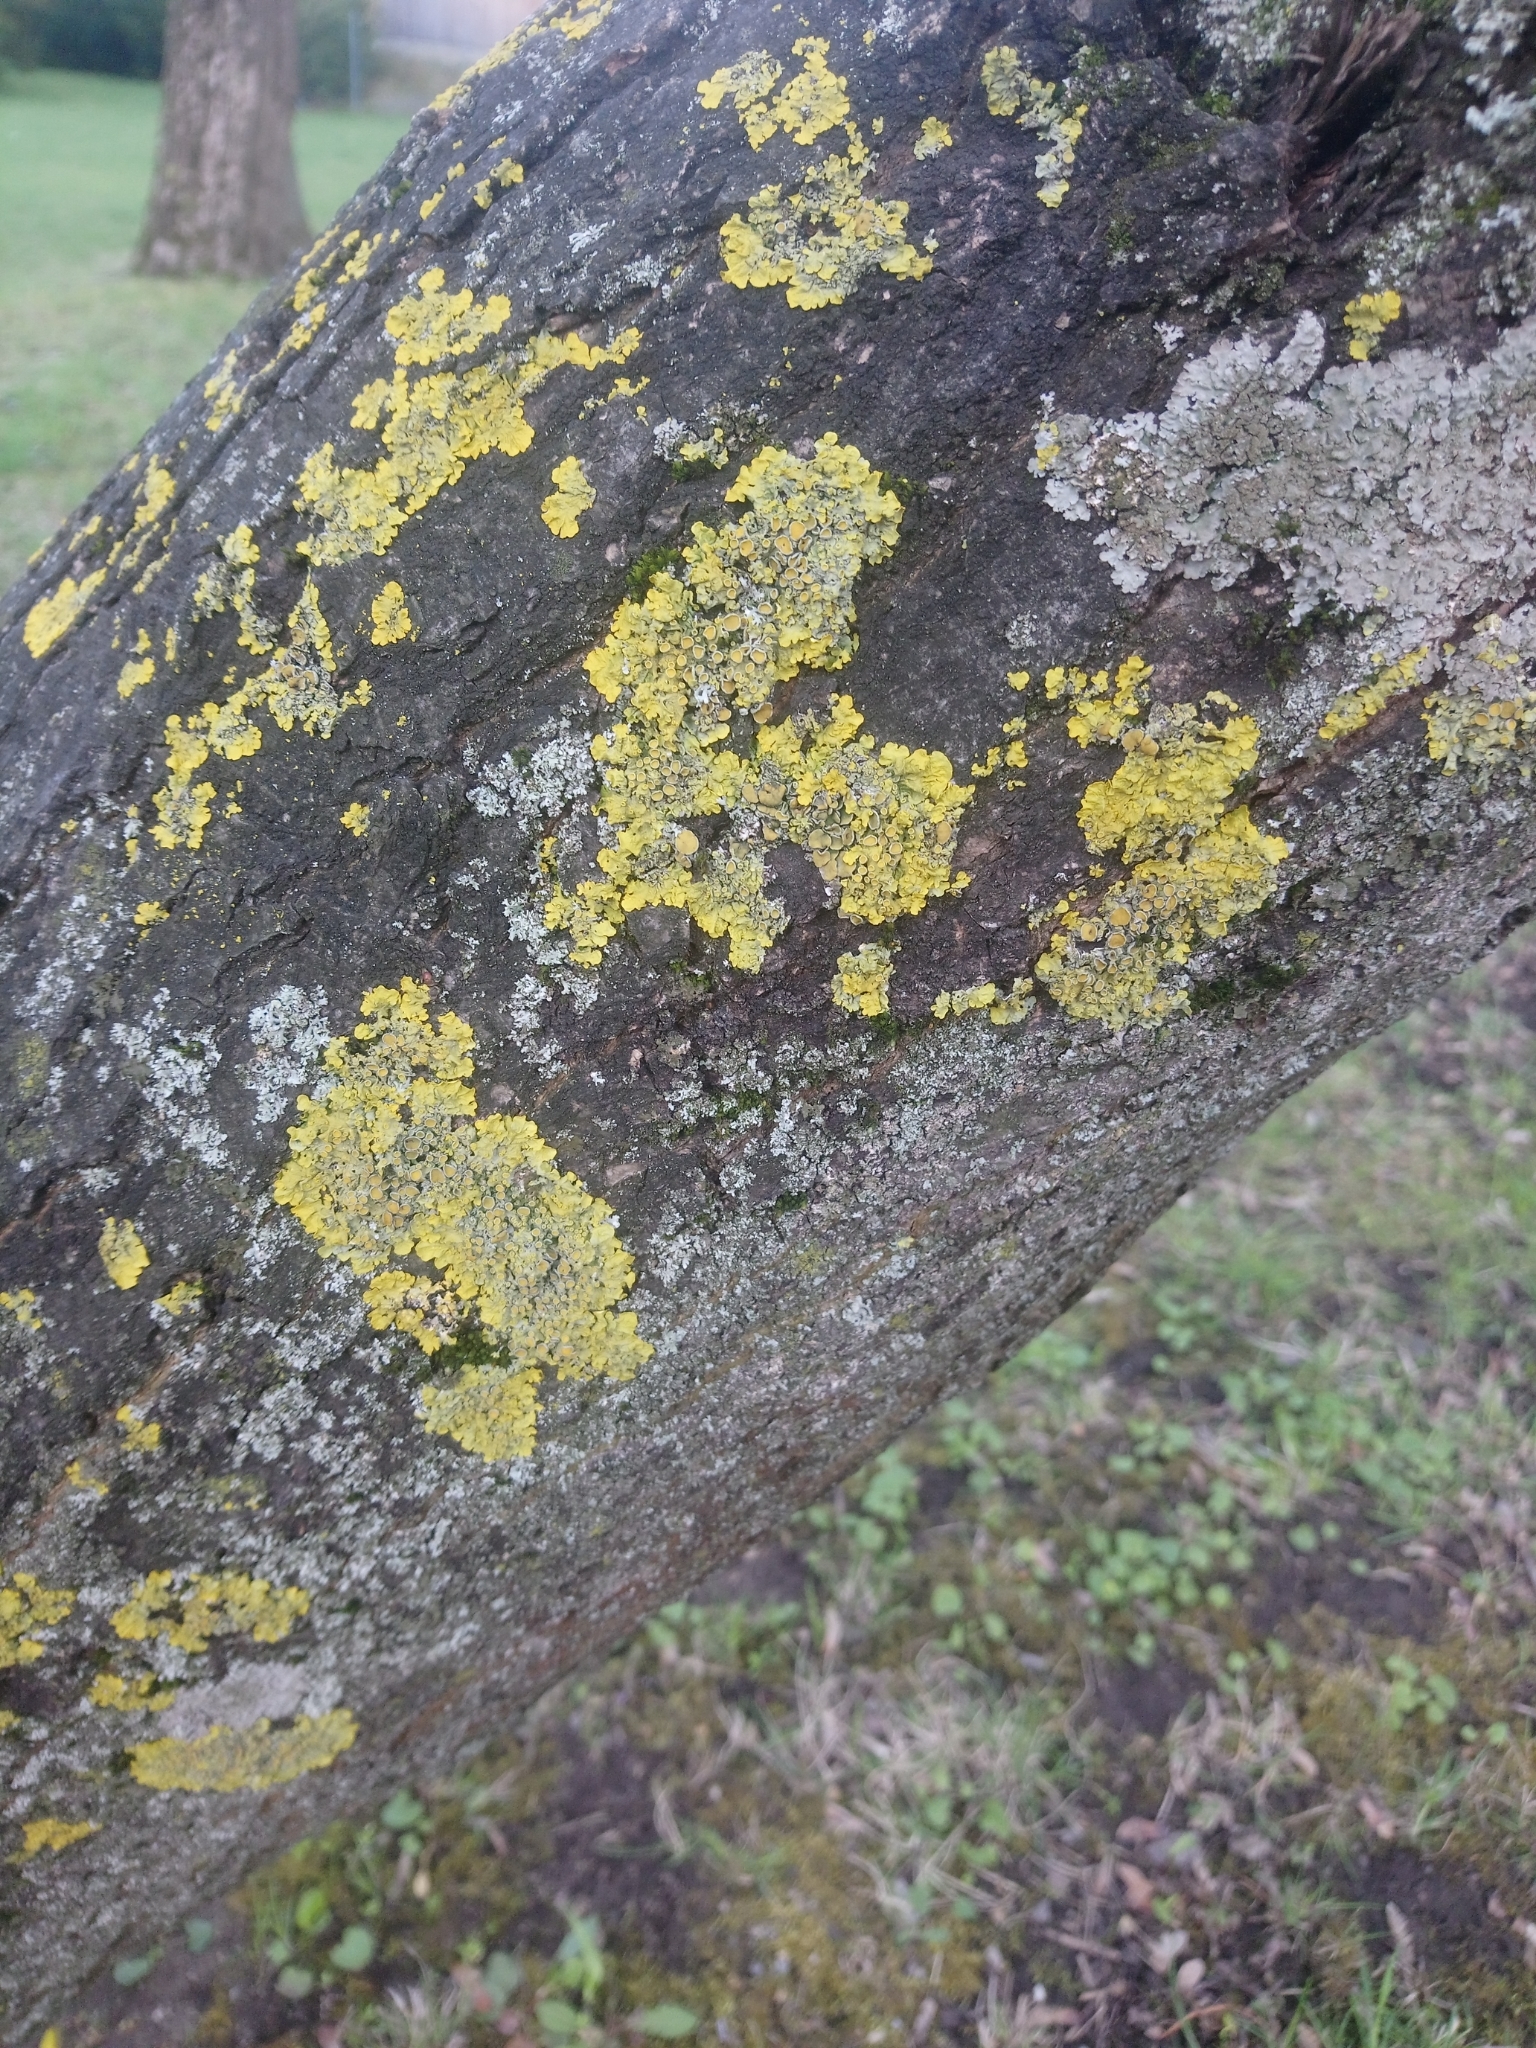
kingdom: Fungi
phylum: Ascomycota
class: Lecanoromycetes
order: Teloschistales
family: Teloschistaceae
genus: Xanthoria
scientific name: Xanthoria parietina
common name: Common orange lichen
